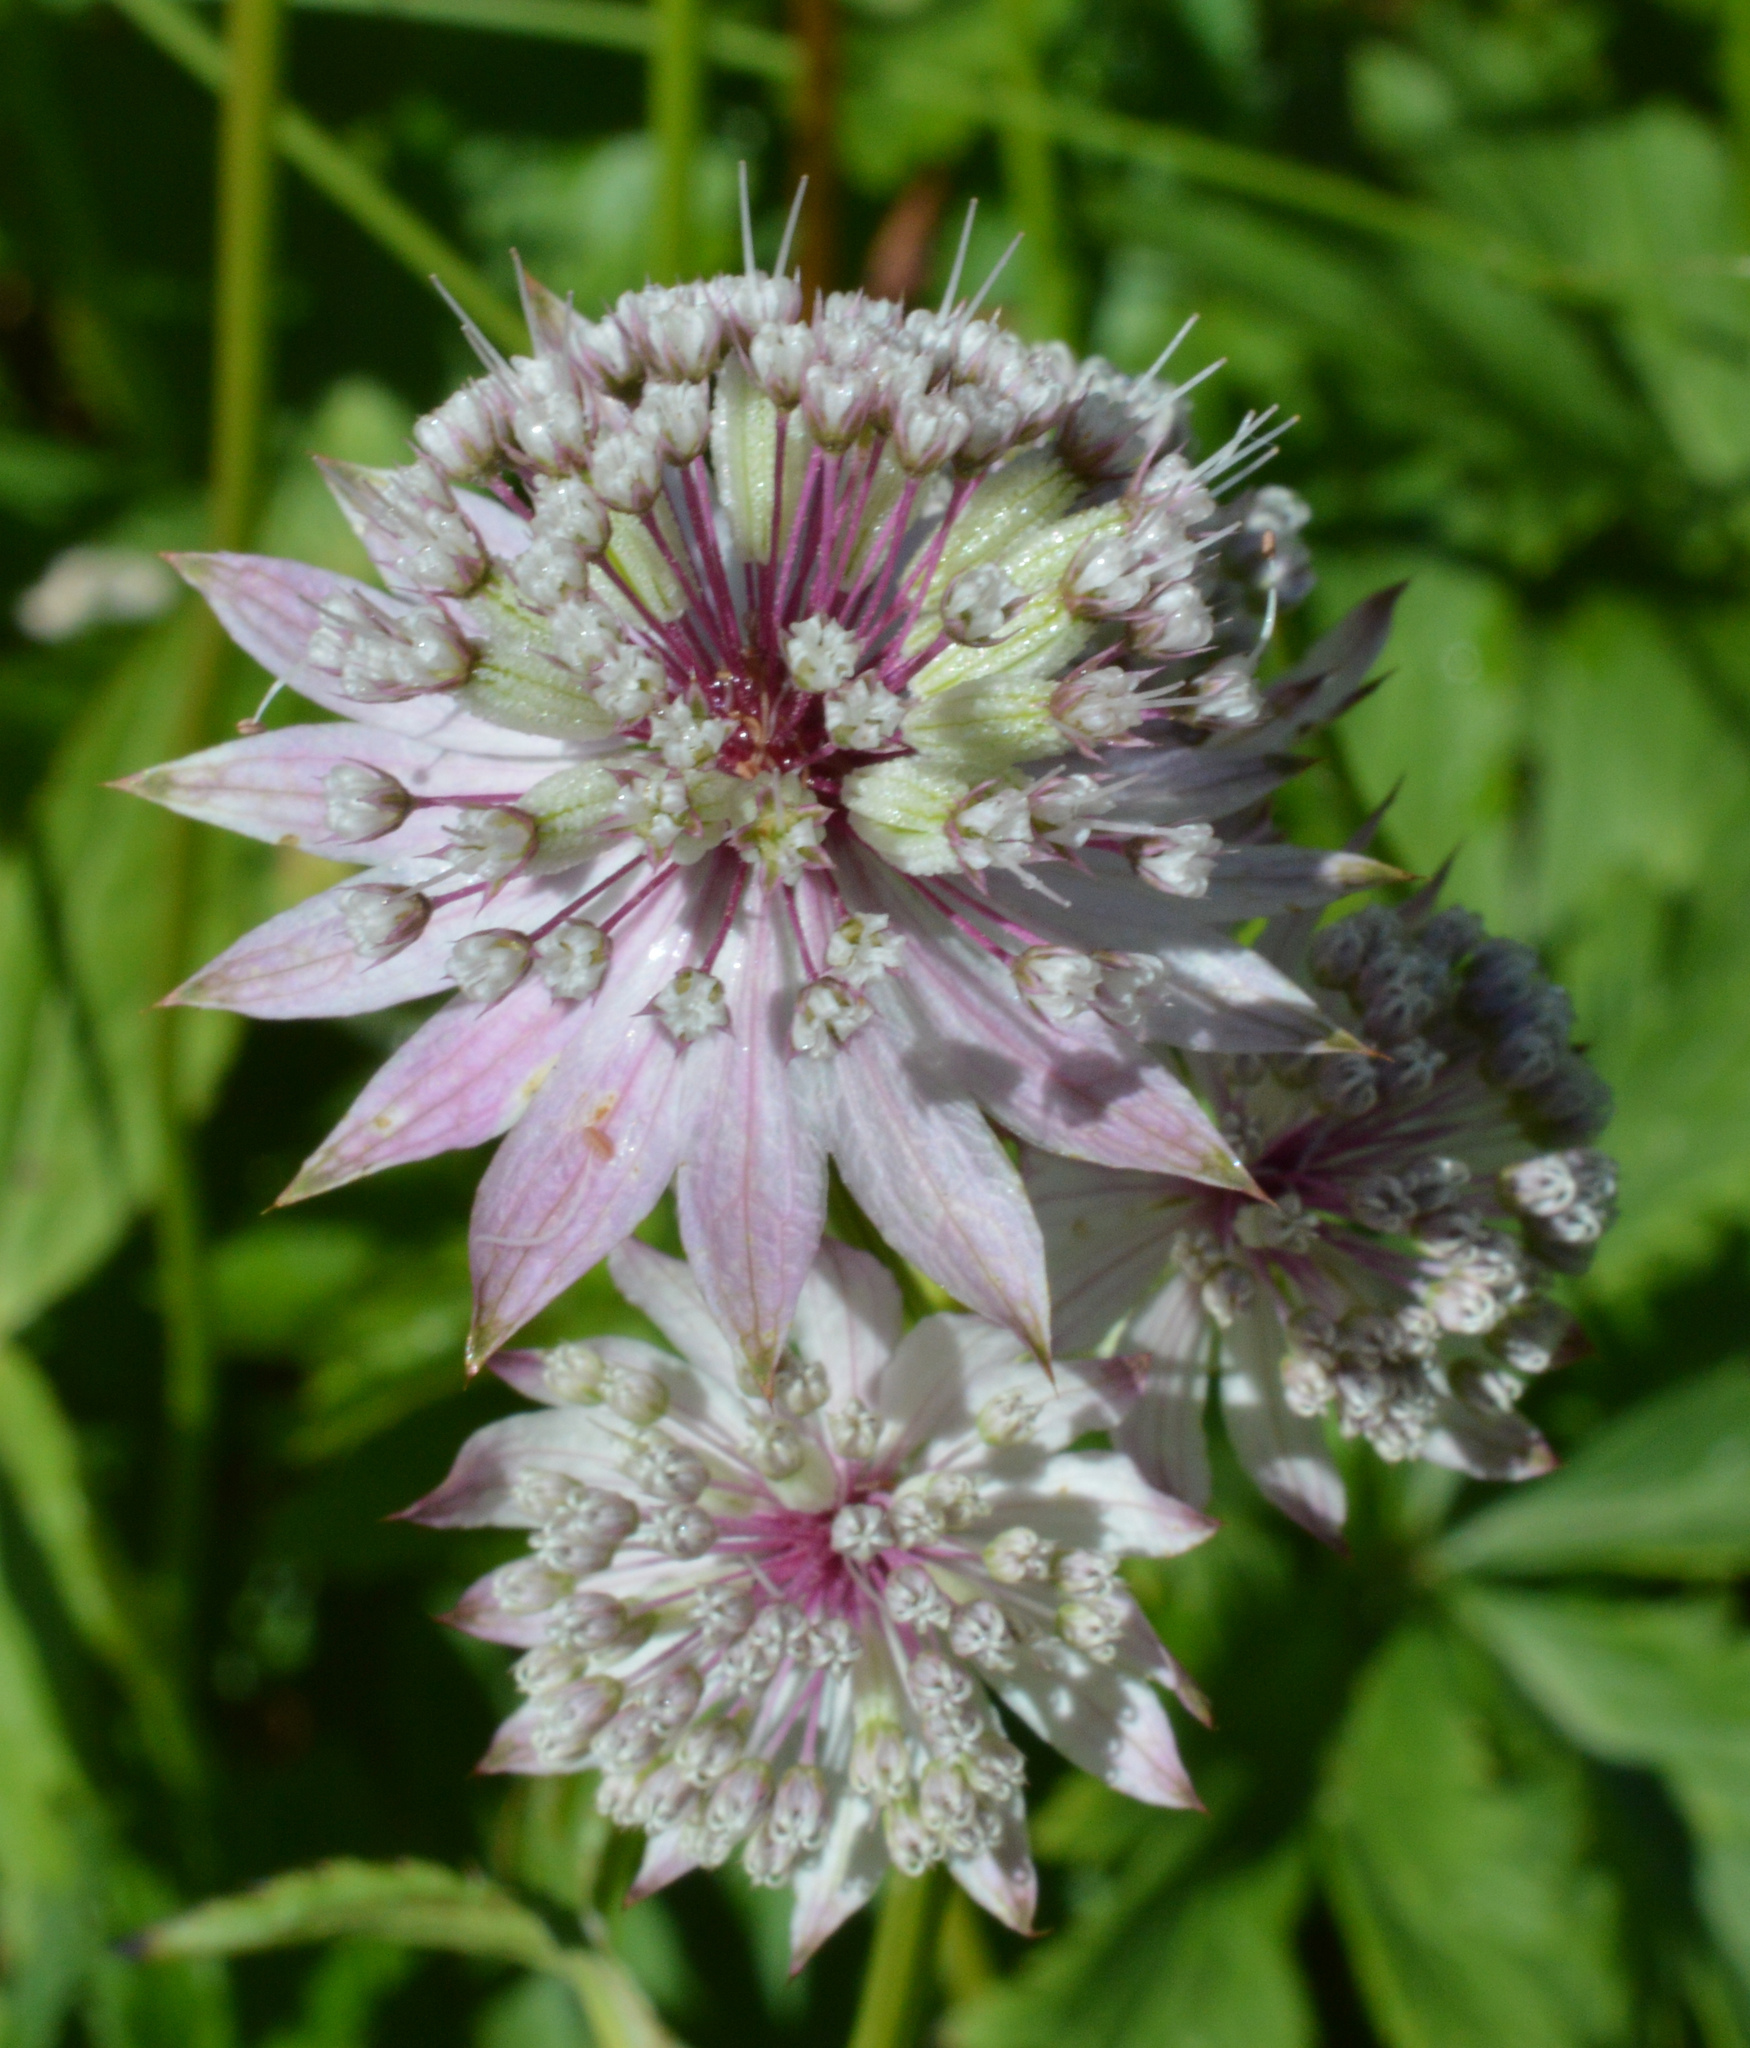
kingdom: Plantae
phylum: Tracheophyta
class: Magnoliopsida
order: Apiales
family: Apiaceae
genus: Astrantia
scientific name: Astrantia major
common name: Greater masterwort
